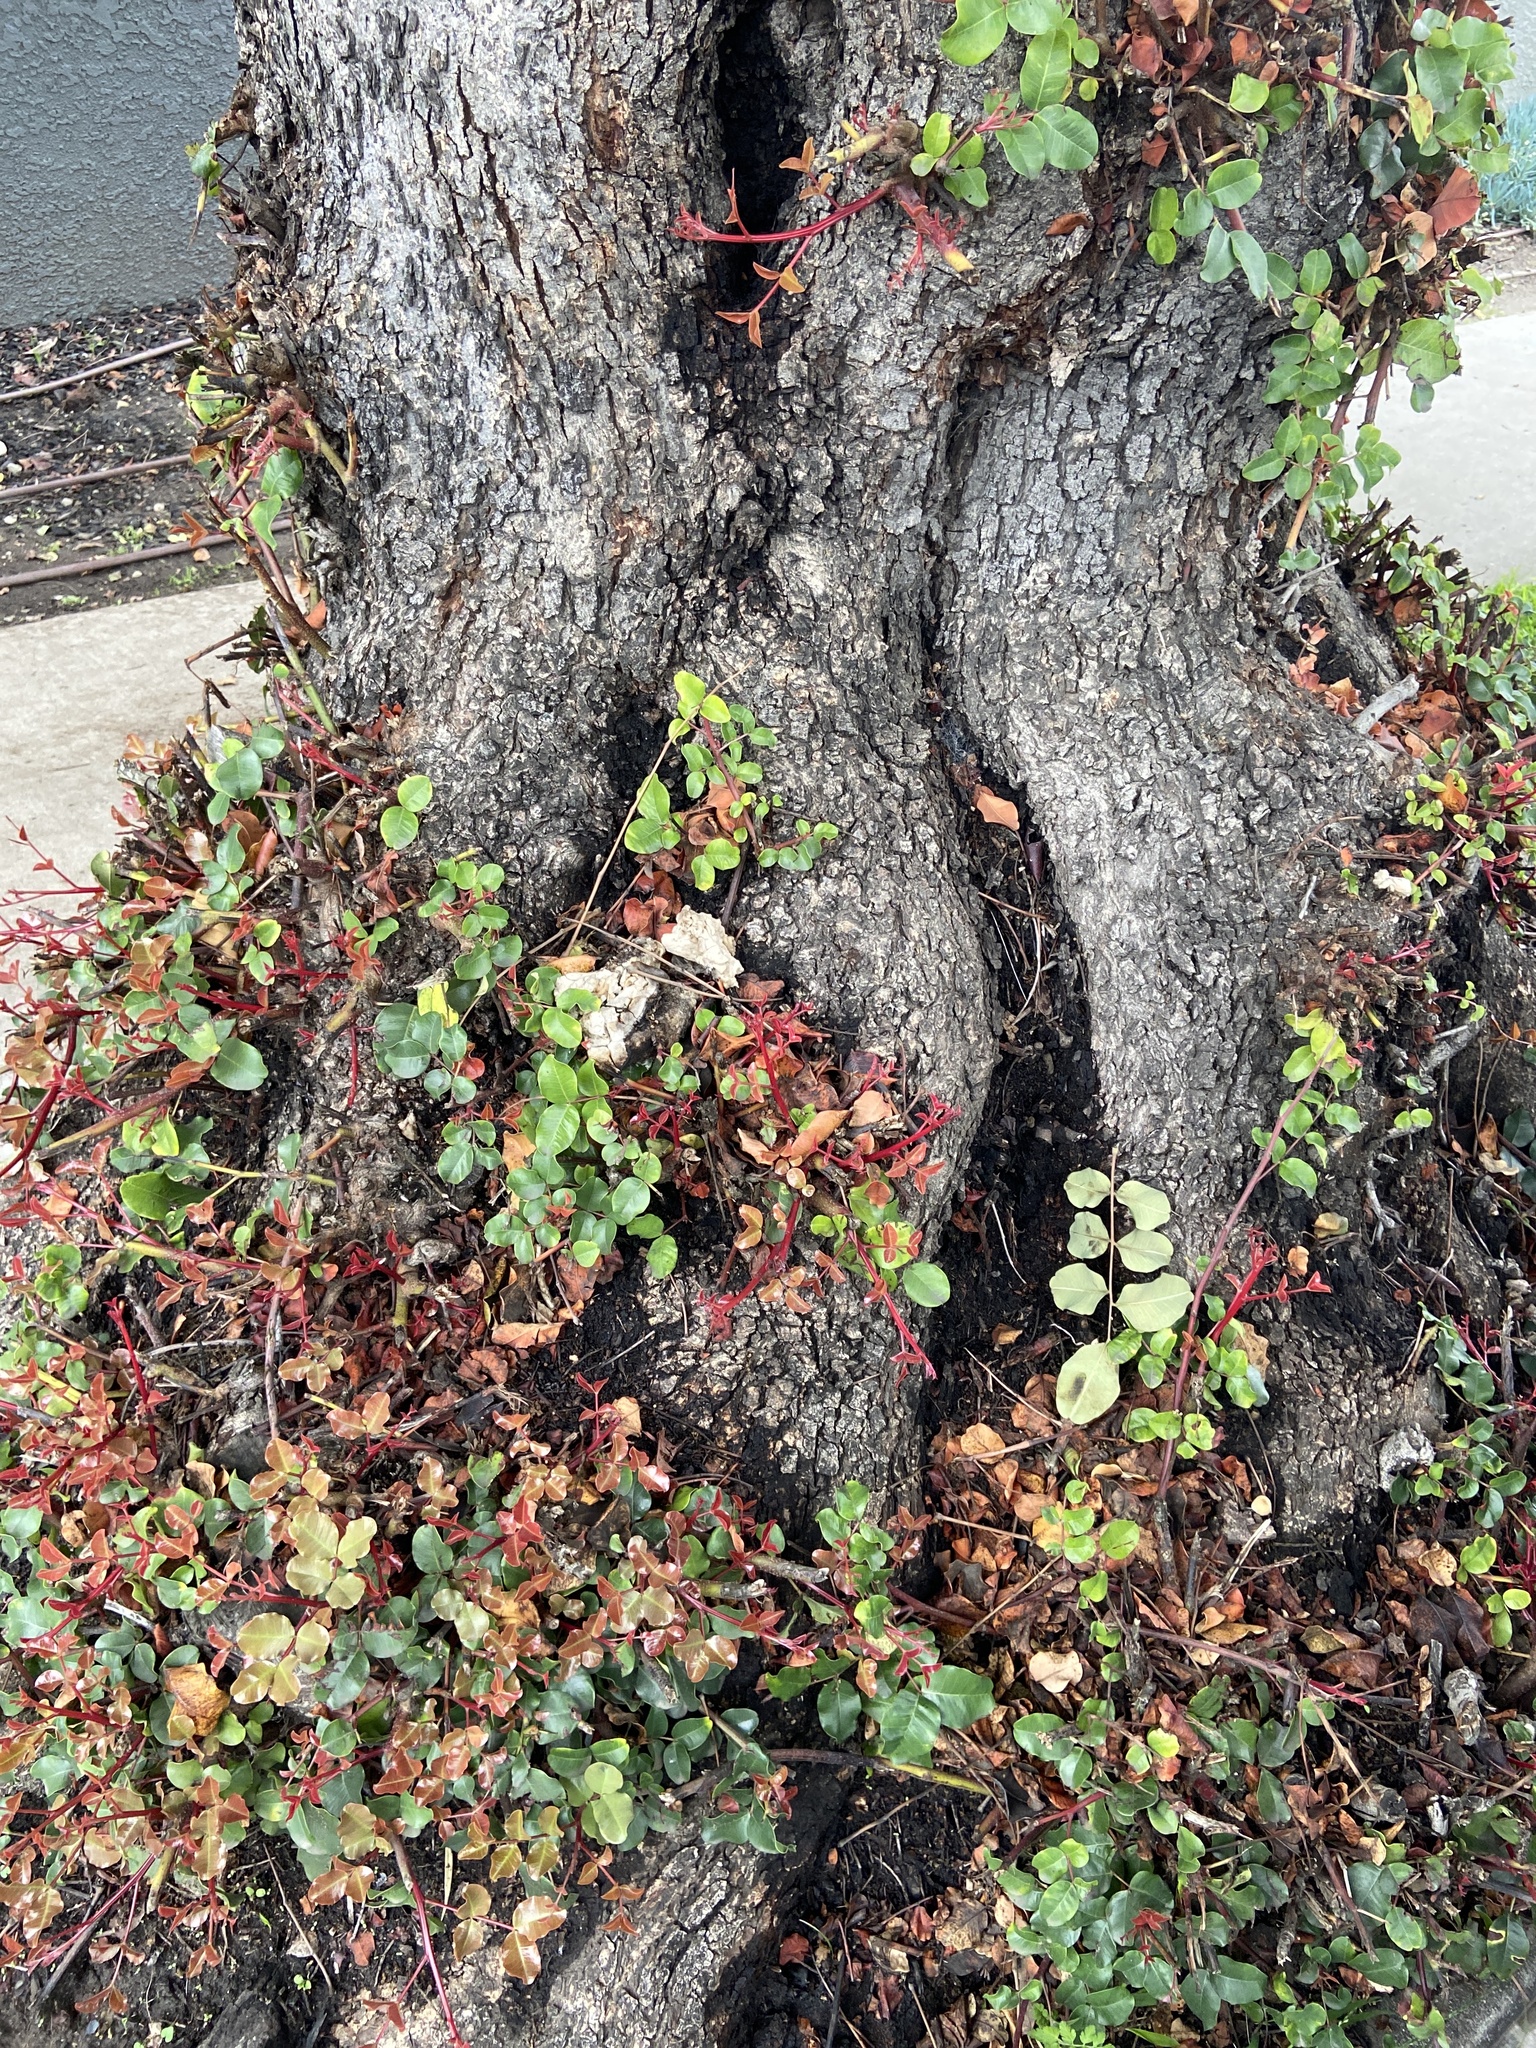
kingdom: Fungi
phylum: Basidiomycota
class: Agaricomycetes
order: Polyporales
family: Laetiporaceae
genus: Laetiporus
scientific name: Laetiporus gilbertsonii
